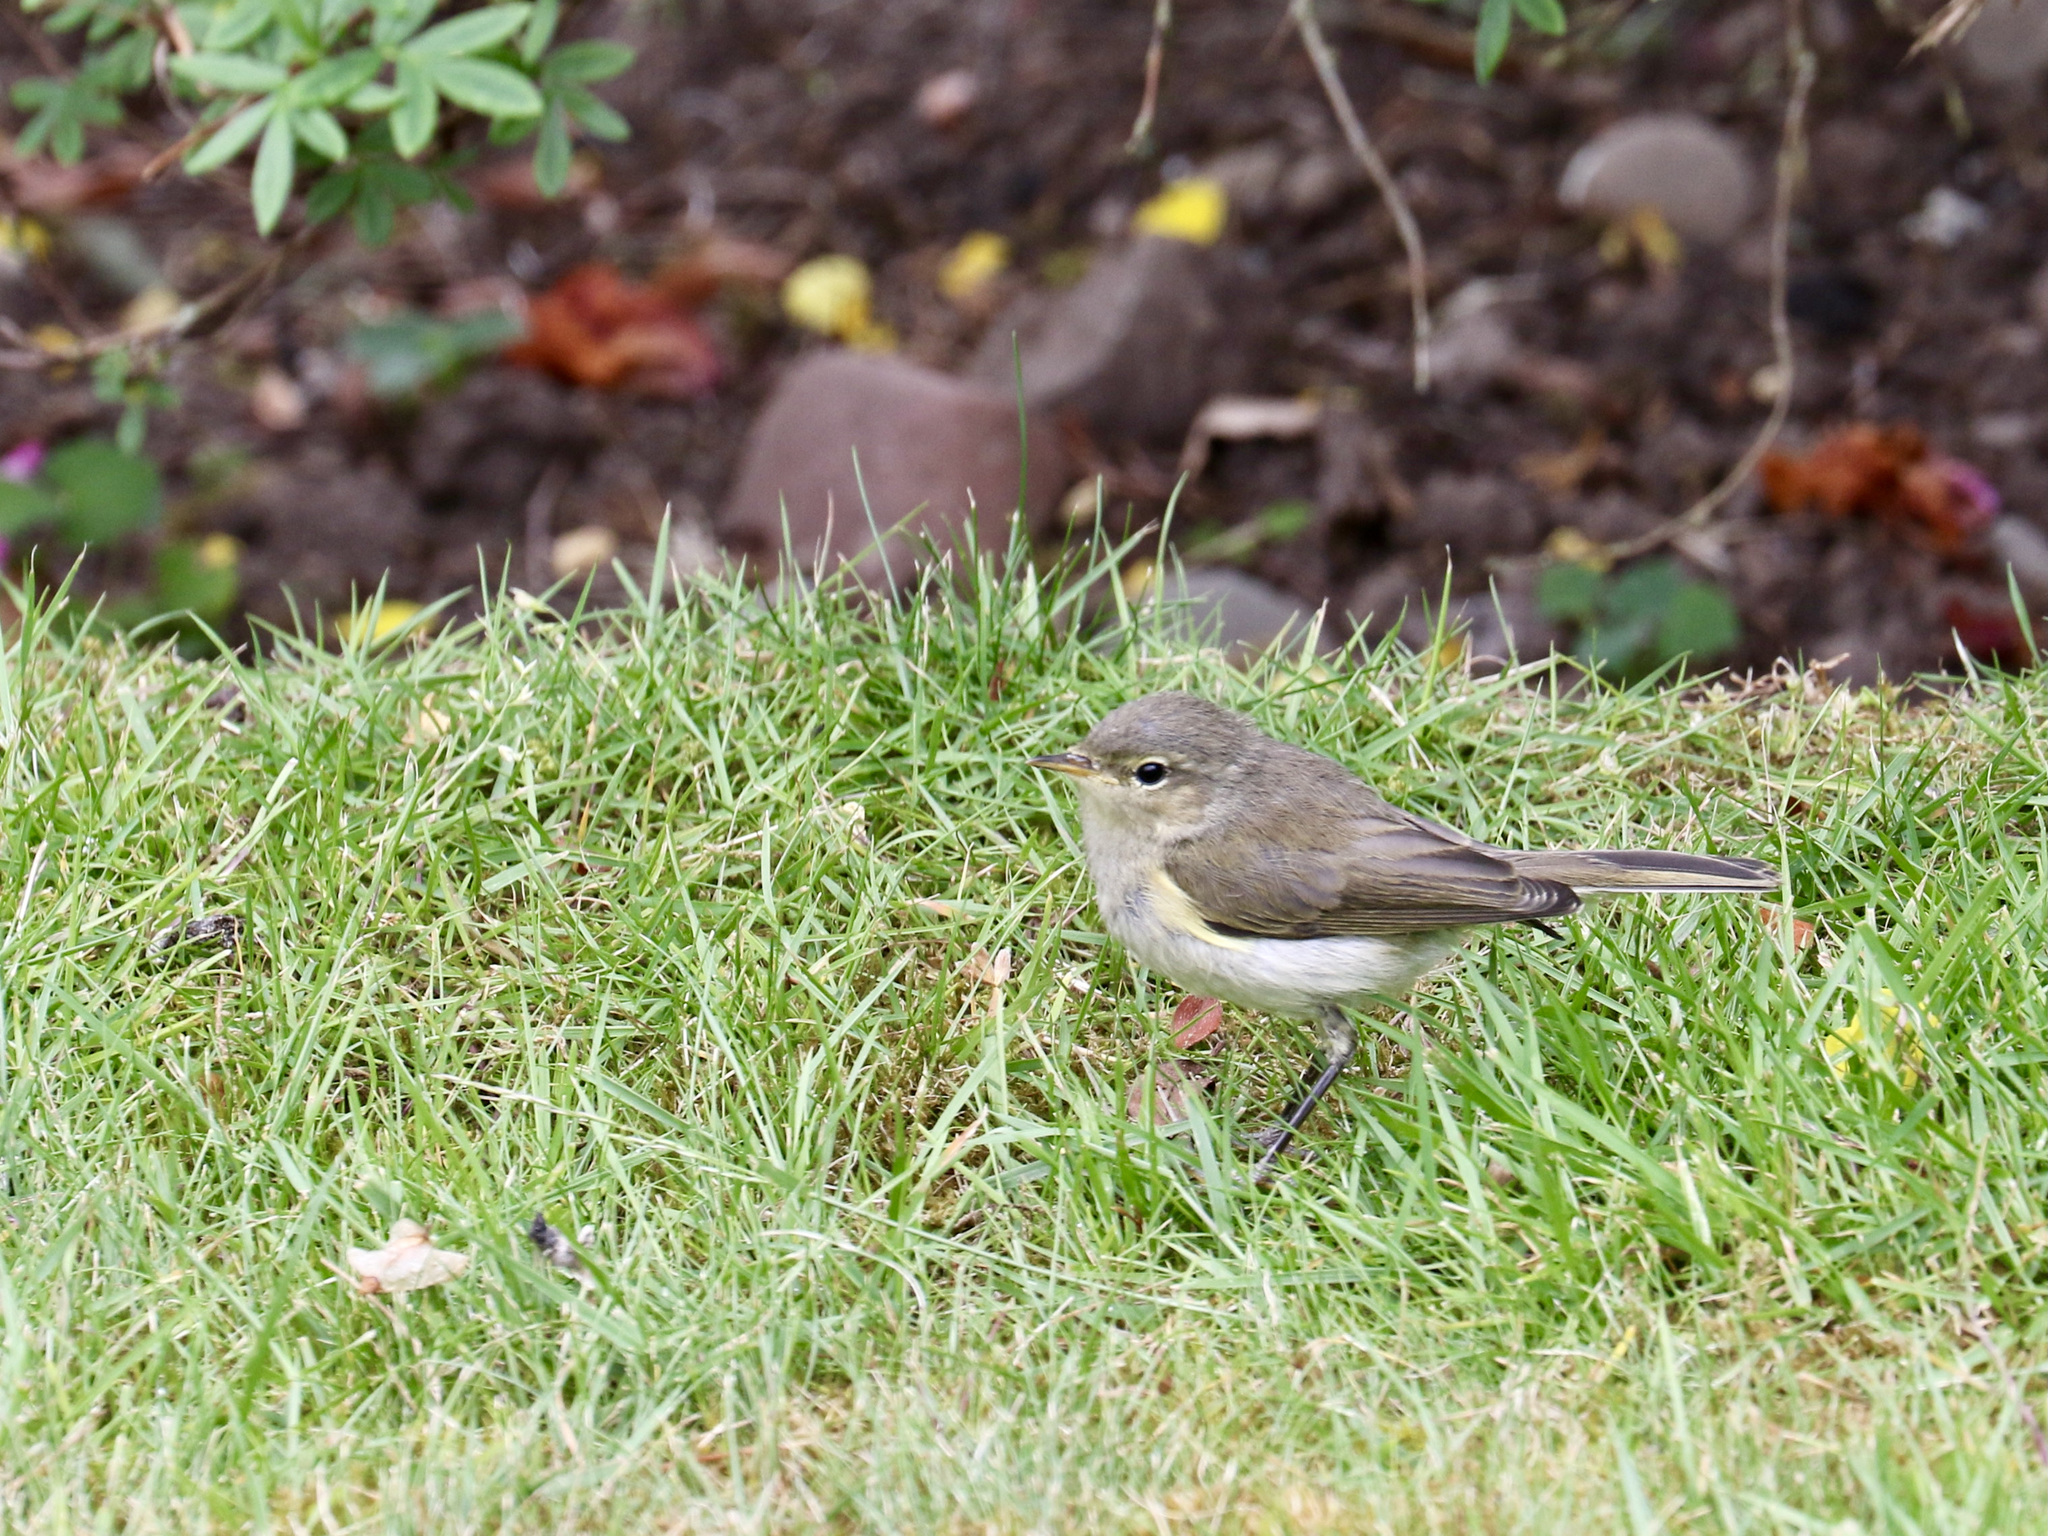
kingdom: Animalia
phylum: Chordata
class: Aves
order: Passeriformes
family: Phylloscopidae
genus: Phylloscopus
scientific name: Phylloscopus collybita
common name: Common chiffchaff
